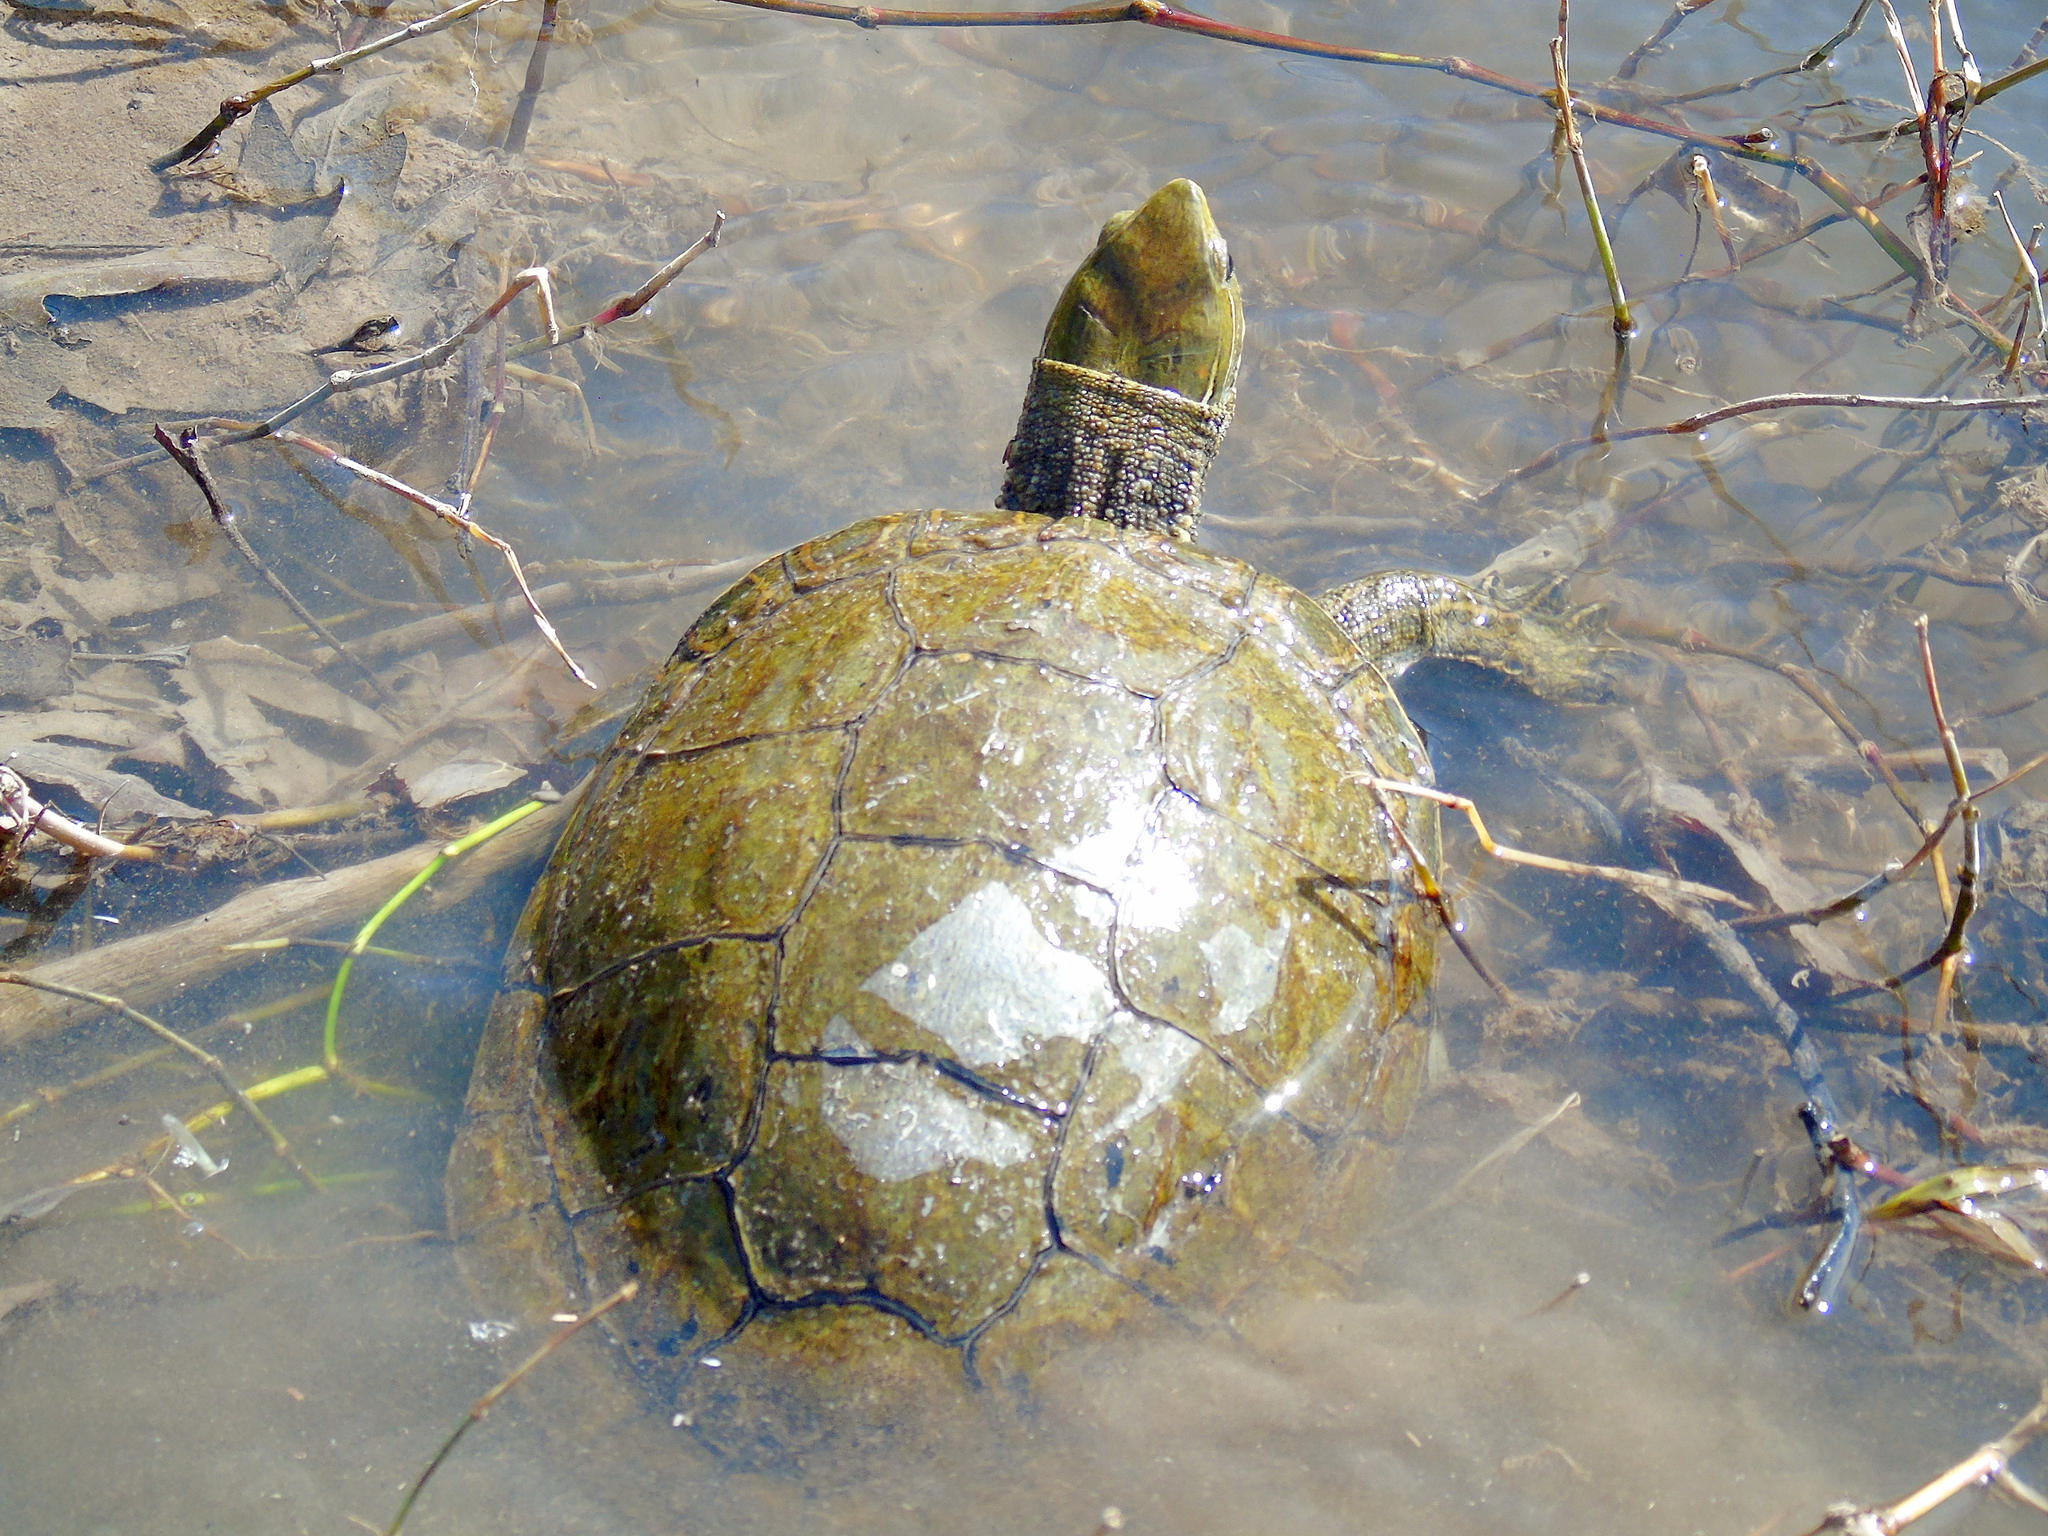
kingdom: Animalia
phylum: Chordata
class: Testudines
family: Geoemydidae
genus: Mauremys
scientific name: Mauremys caspica
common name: Caspian turtle
